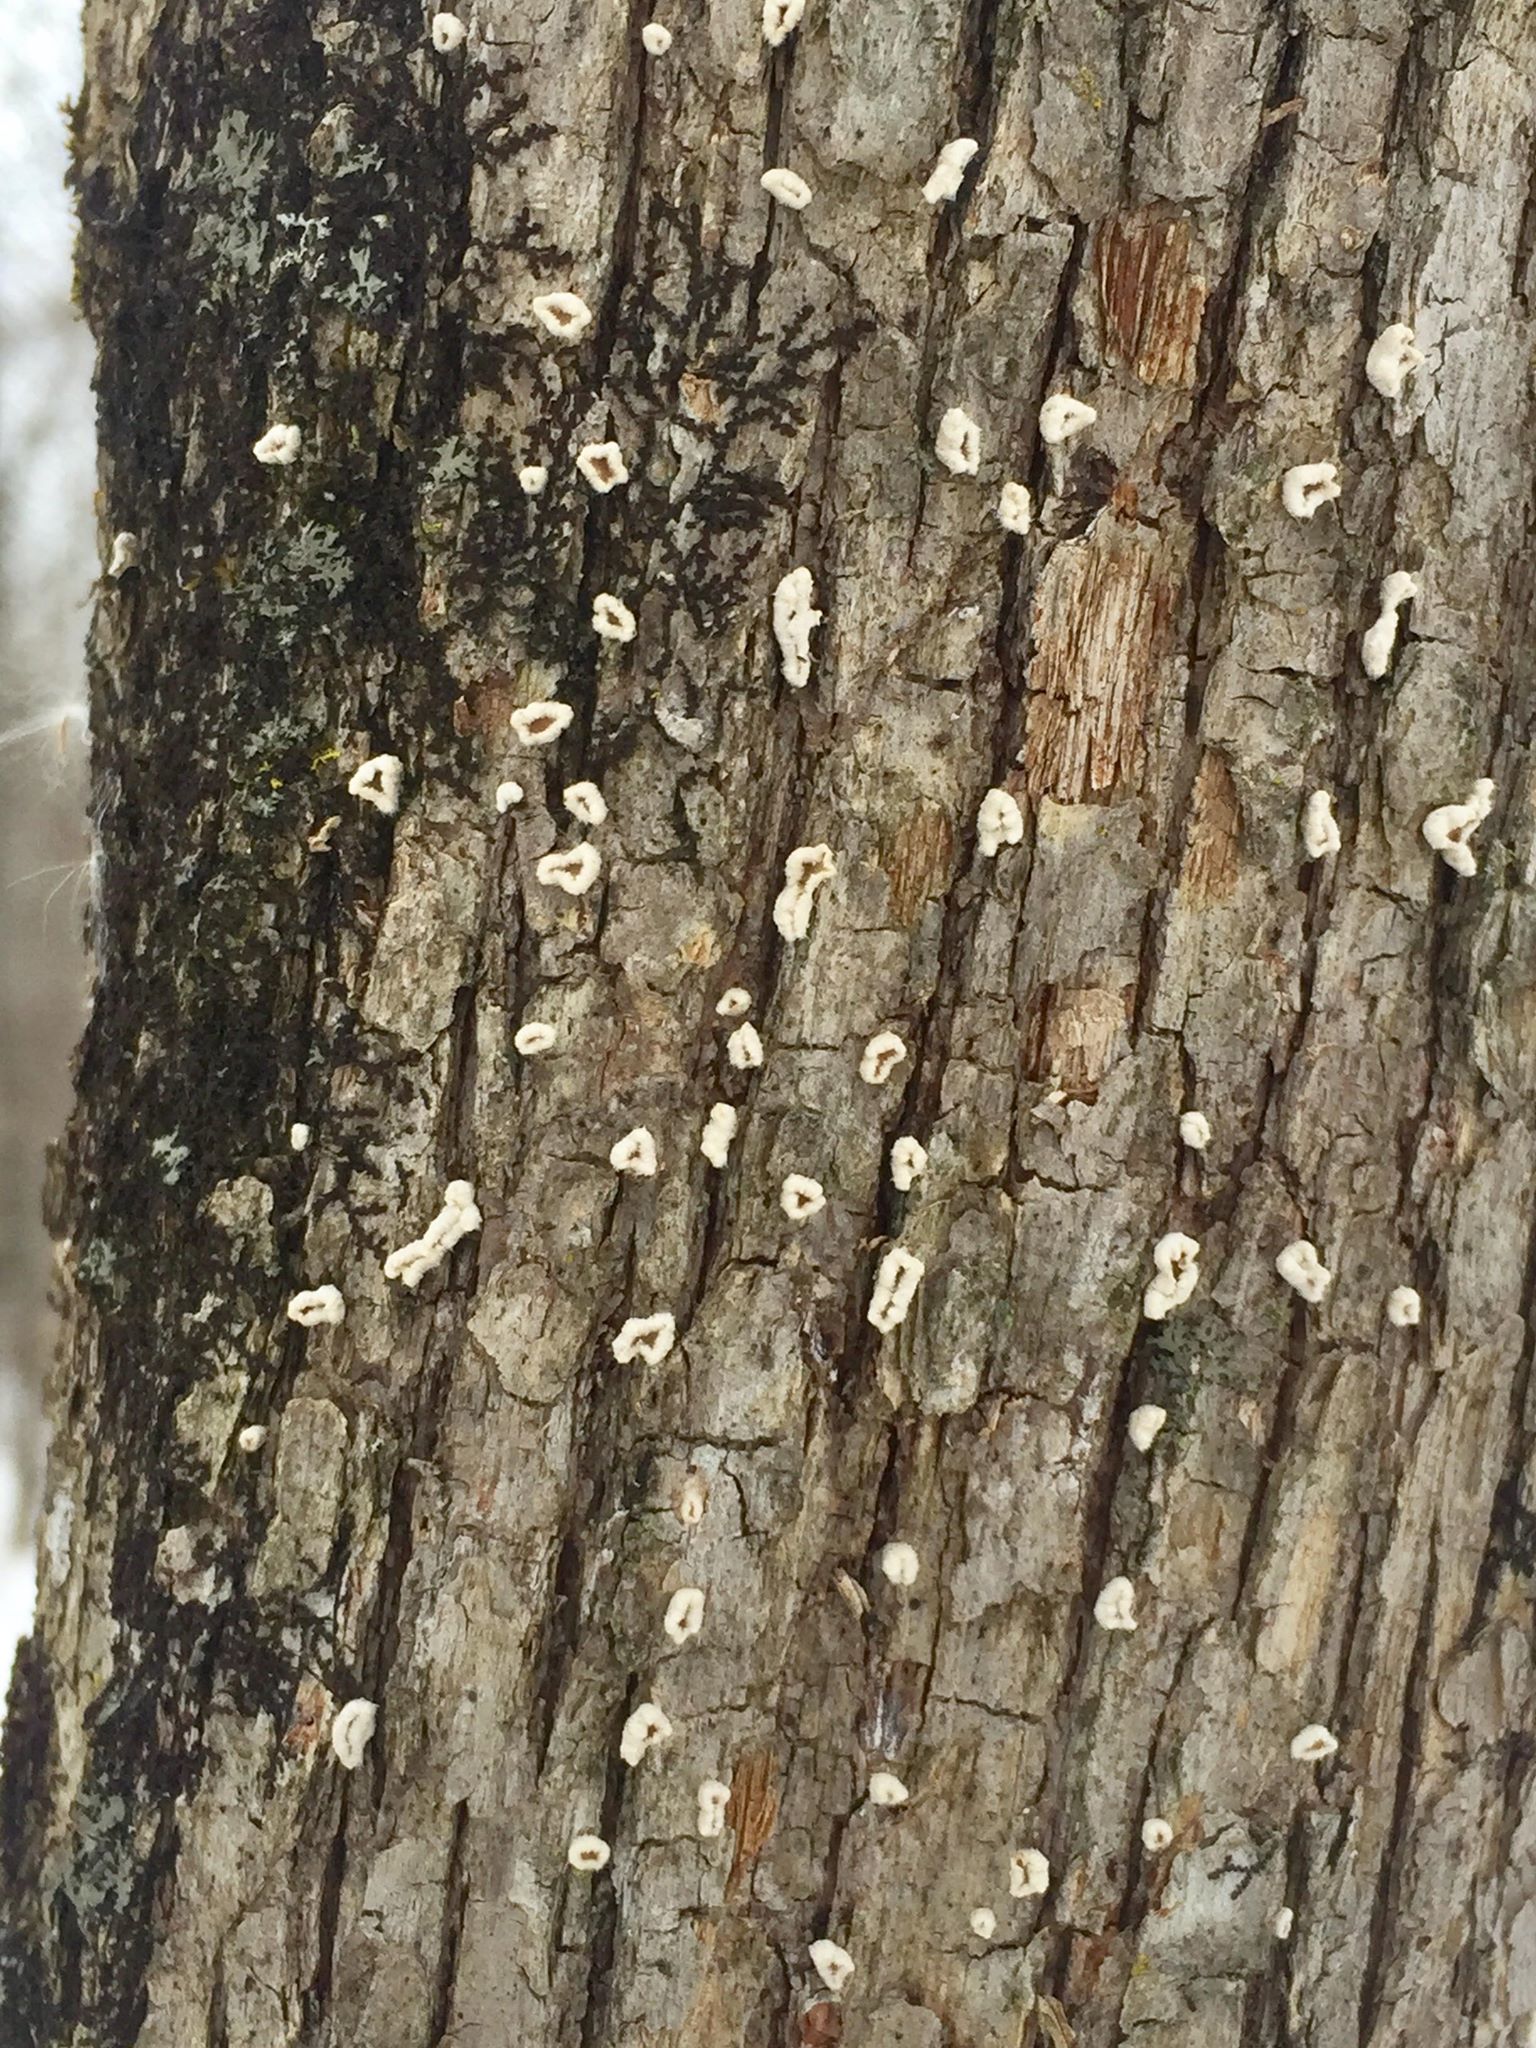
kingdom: Fungi
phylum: Basidiomycota
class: Agaricomycetes
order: Russulales
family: Stereaceae
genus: Acanthophysium
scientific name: Acanthophysium oakesii
